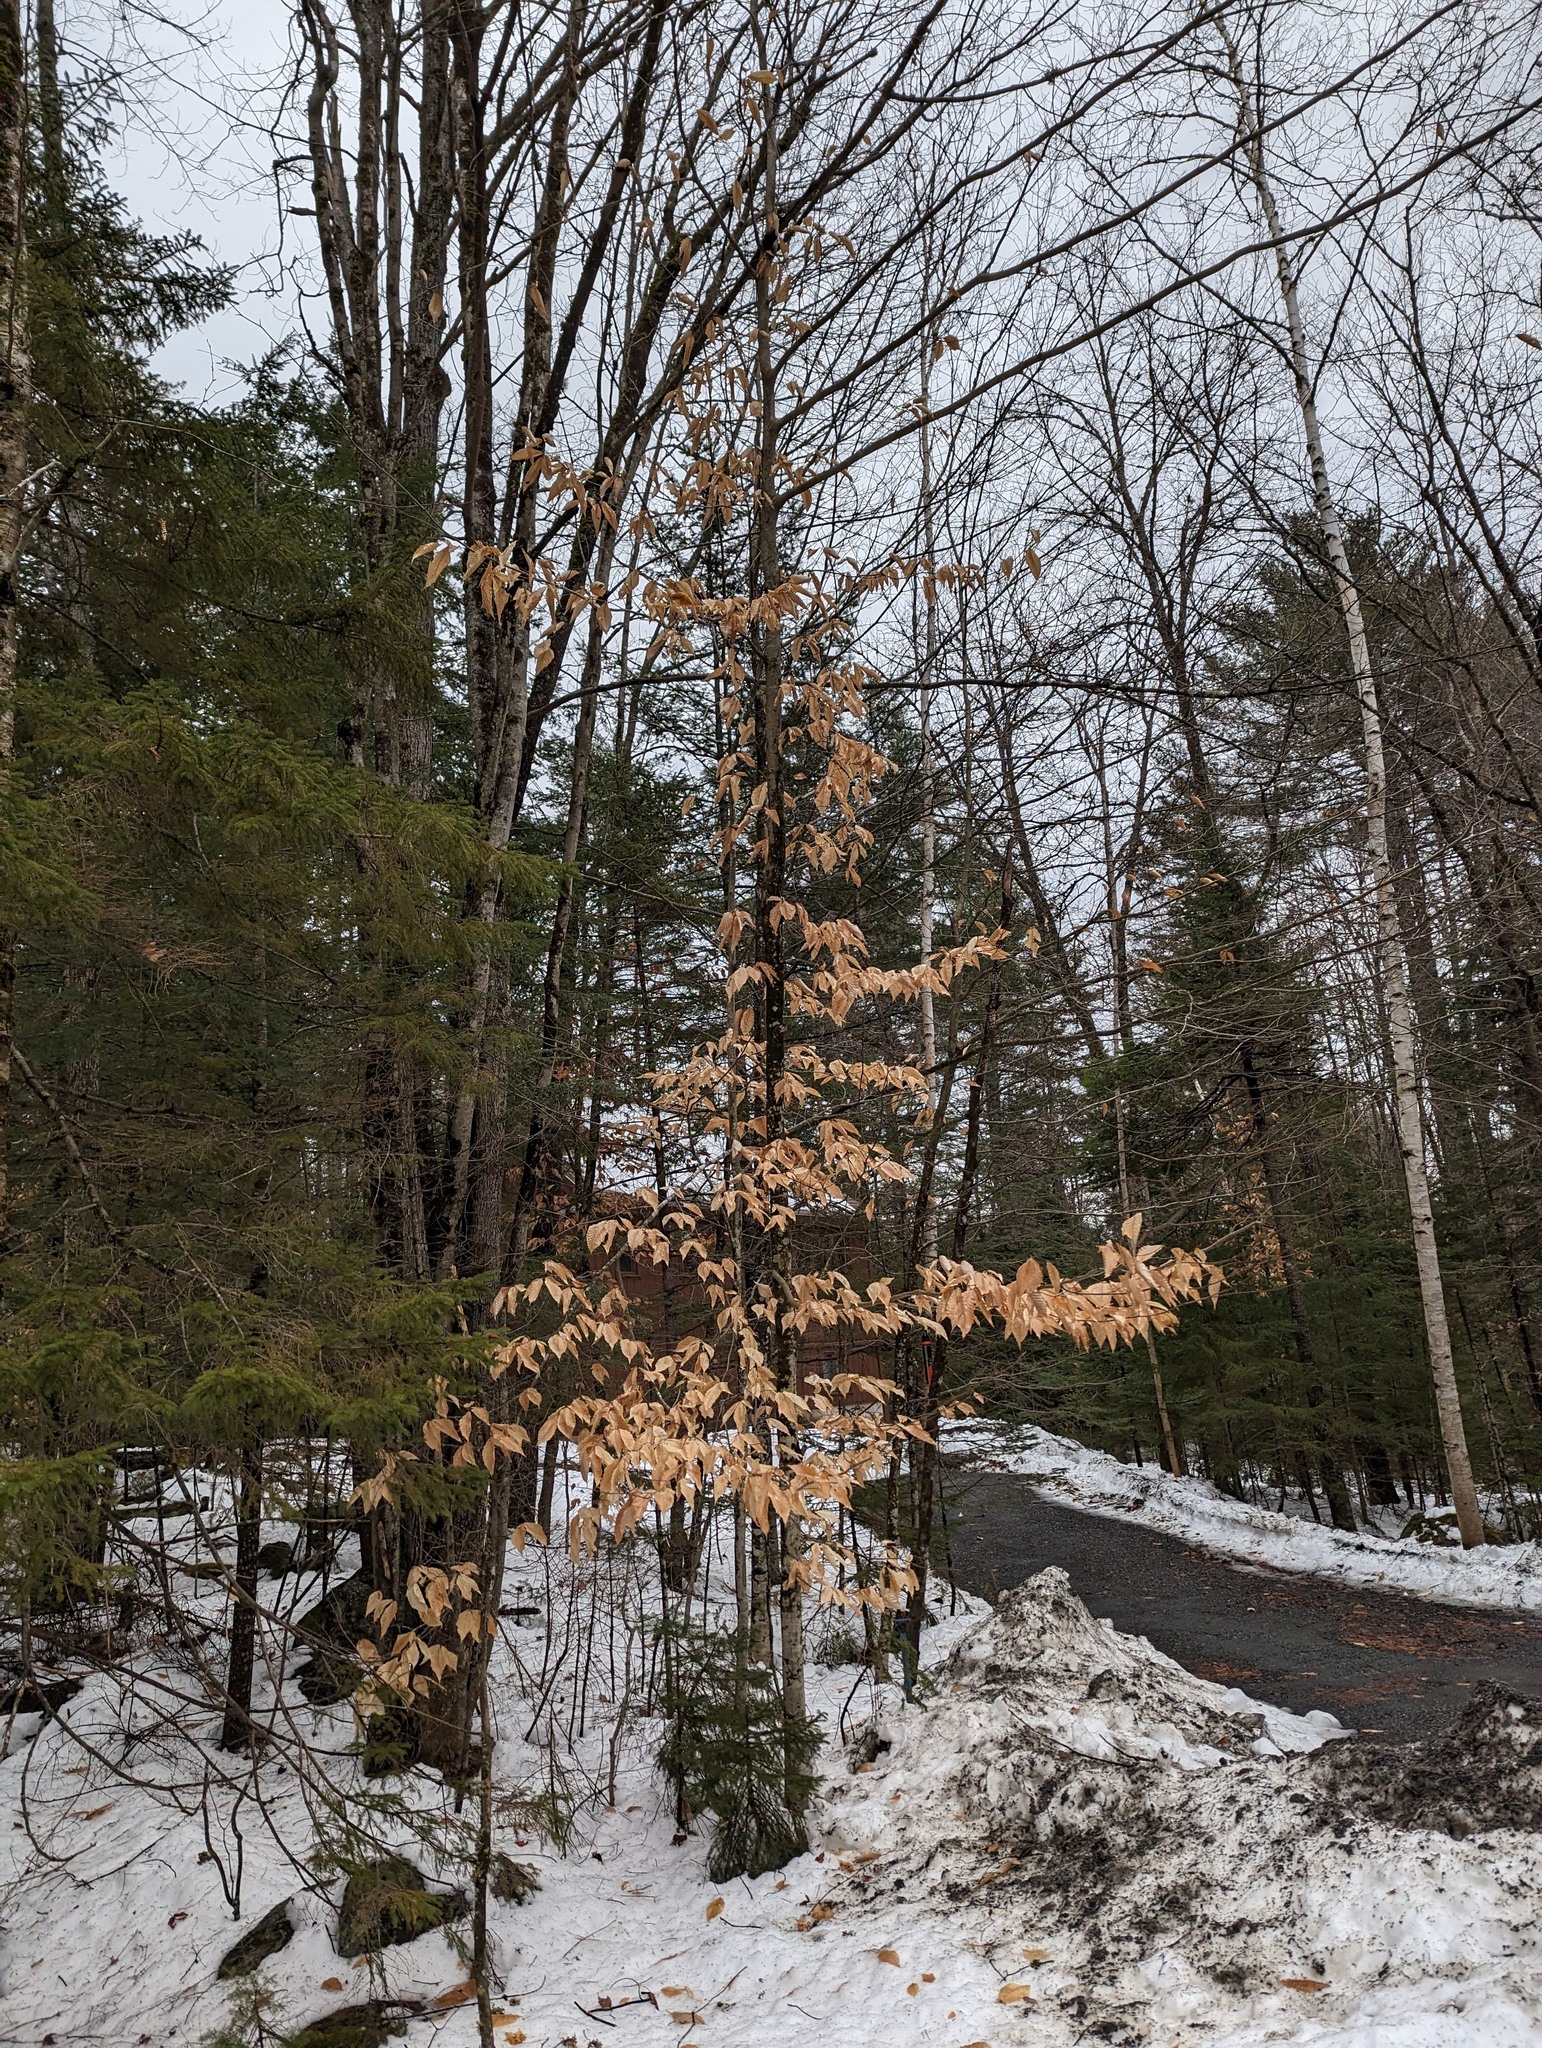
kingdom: Plantae
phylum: Tracheophyta
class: Magnoliopsida
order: Fagales
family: Fagaceae
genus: Fagus
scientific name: Fagus grandifolia
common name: American beech
